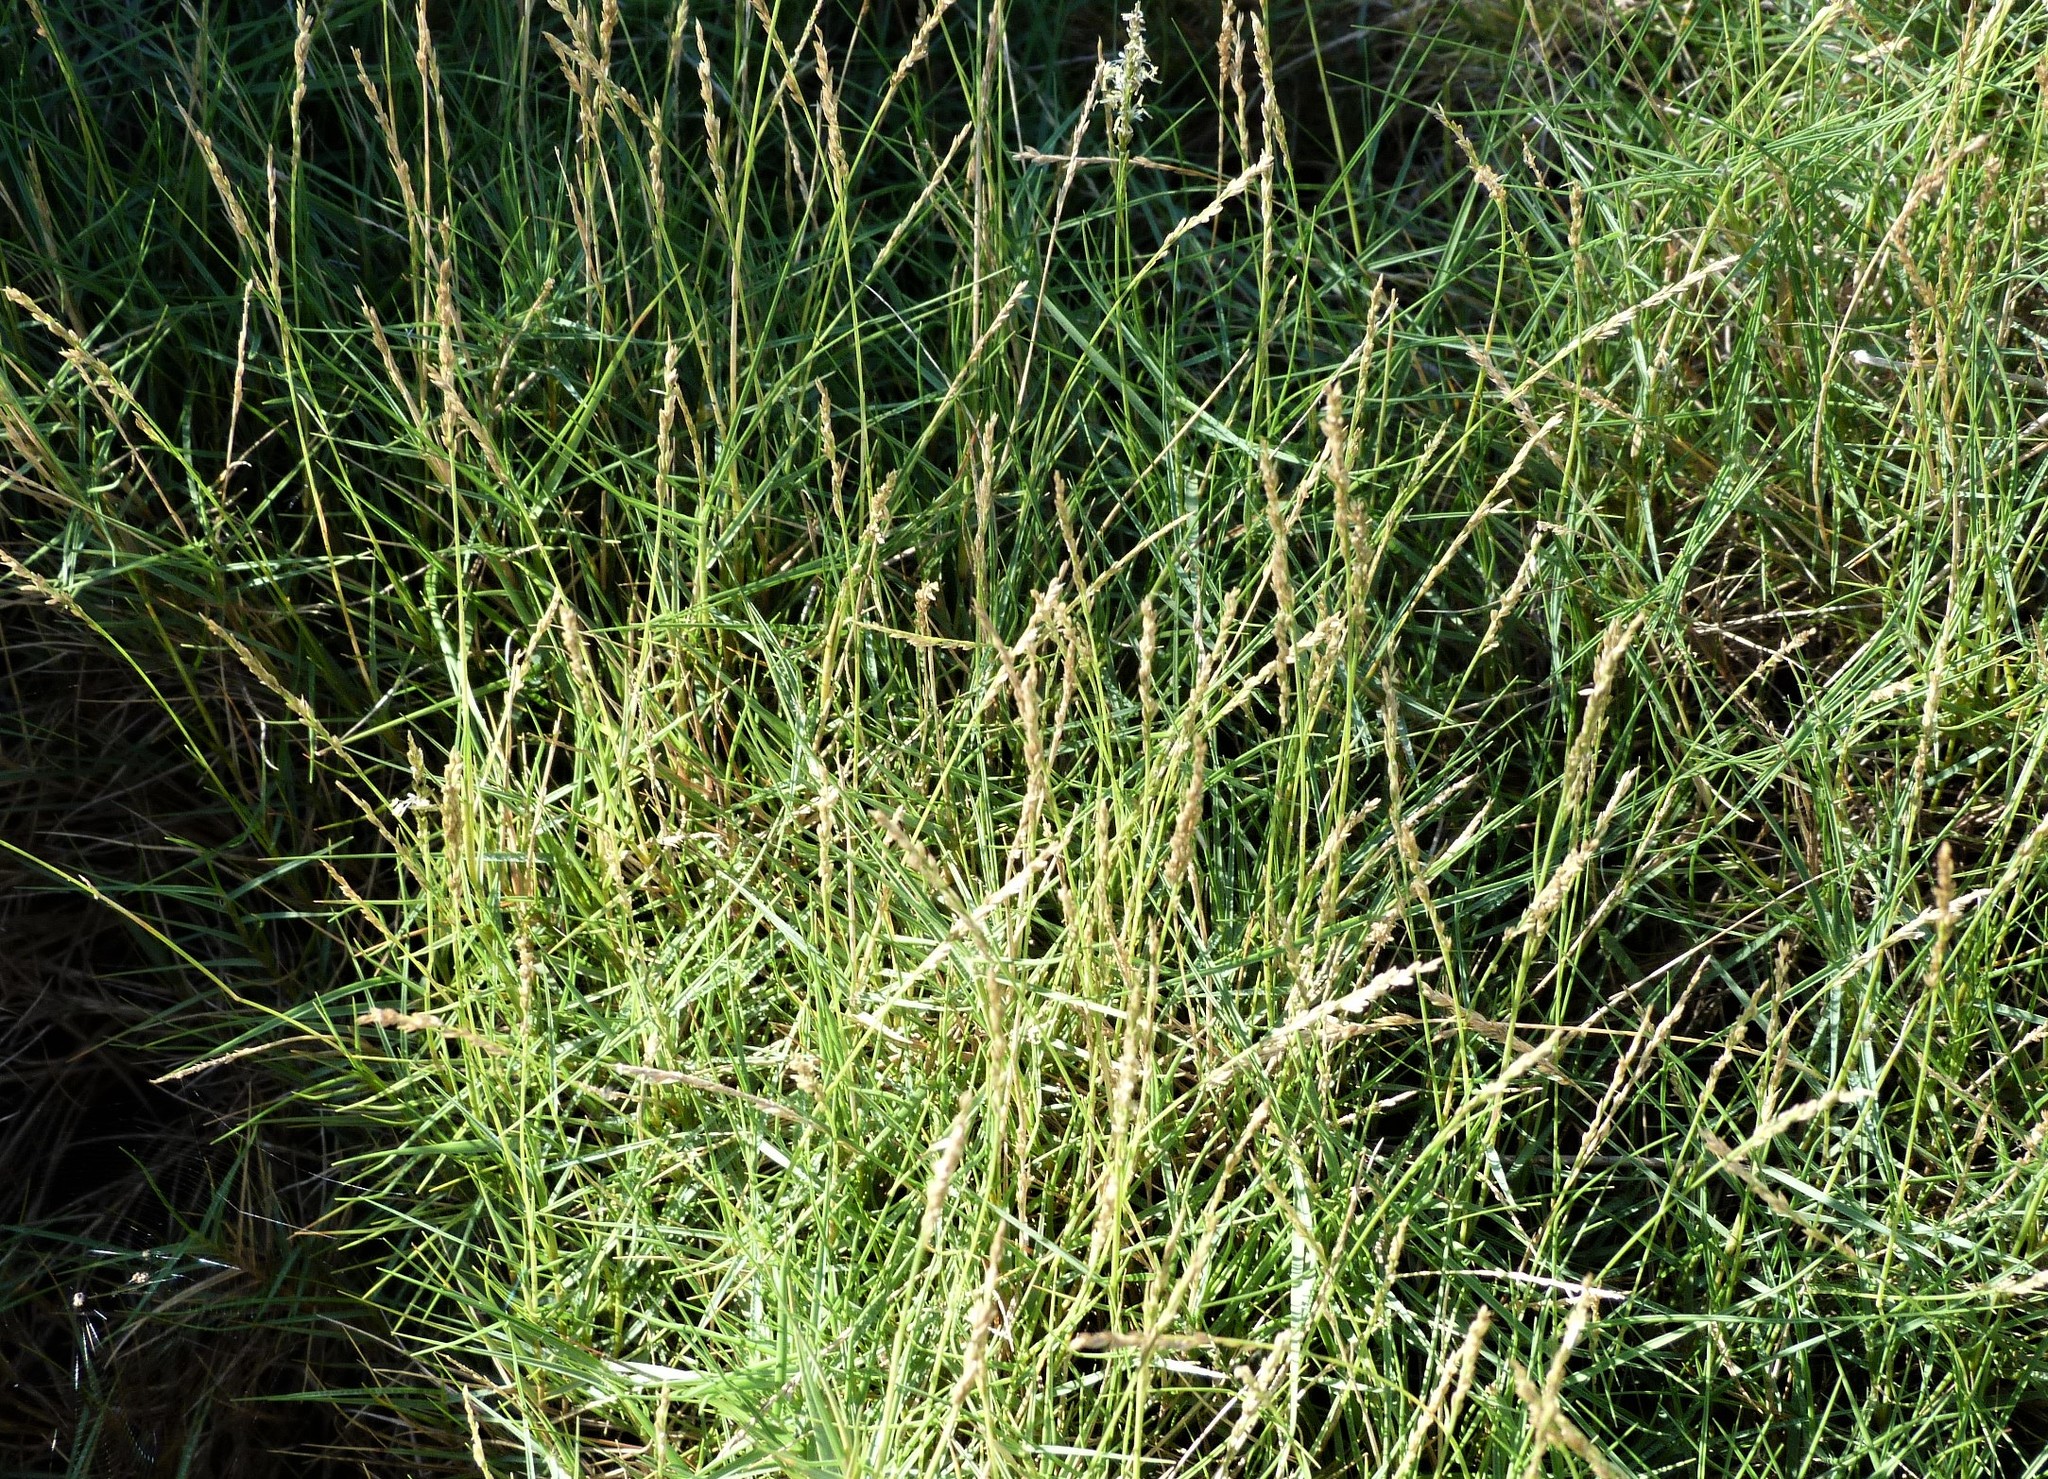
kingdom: Plantae
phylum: Tracheophyta
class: Liliopsida
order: Poales
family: Poaceae
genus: Sporobolus
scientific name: Sporobolus virginicus
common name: Beach dropseed
